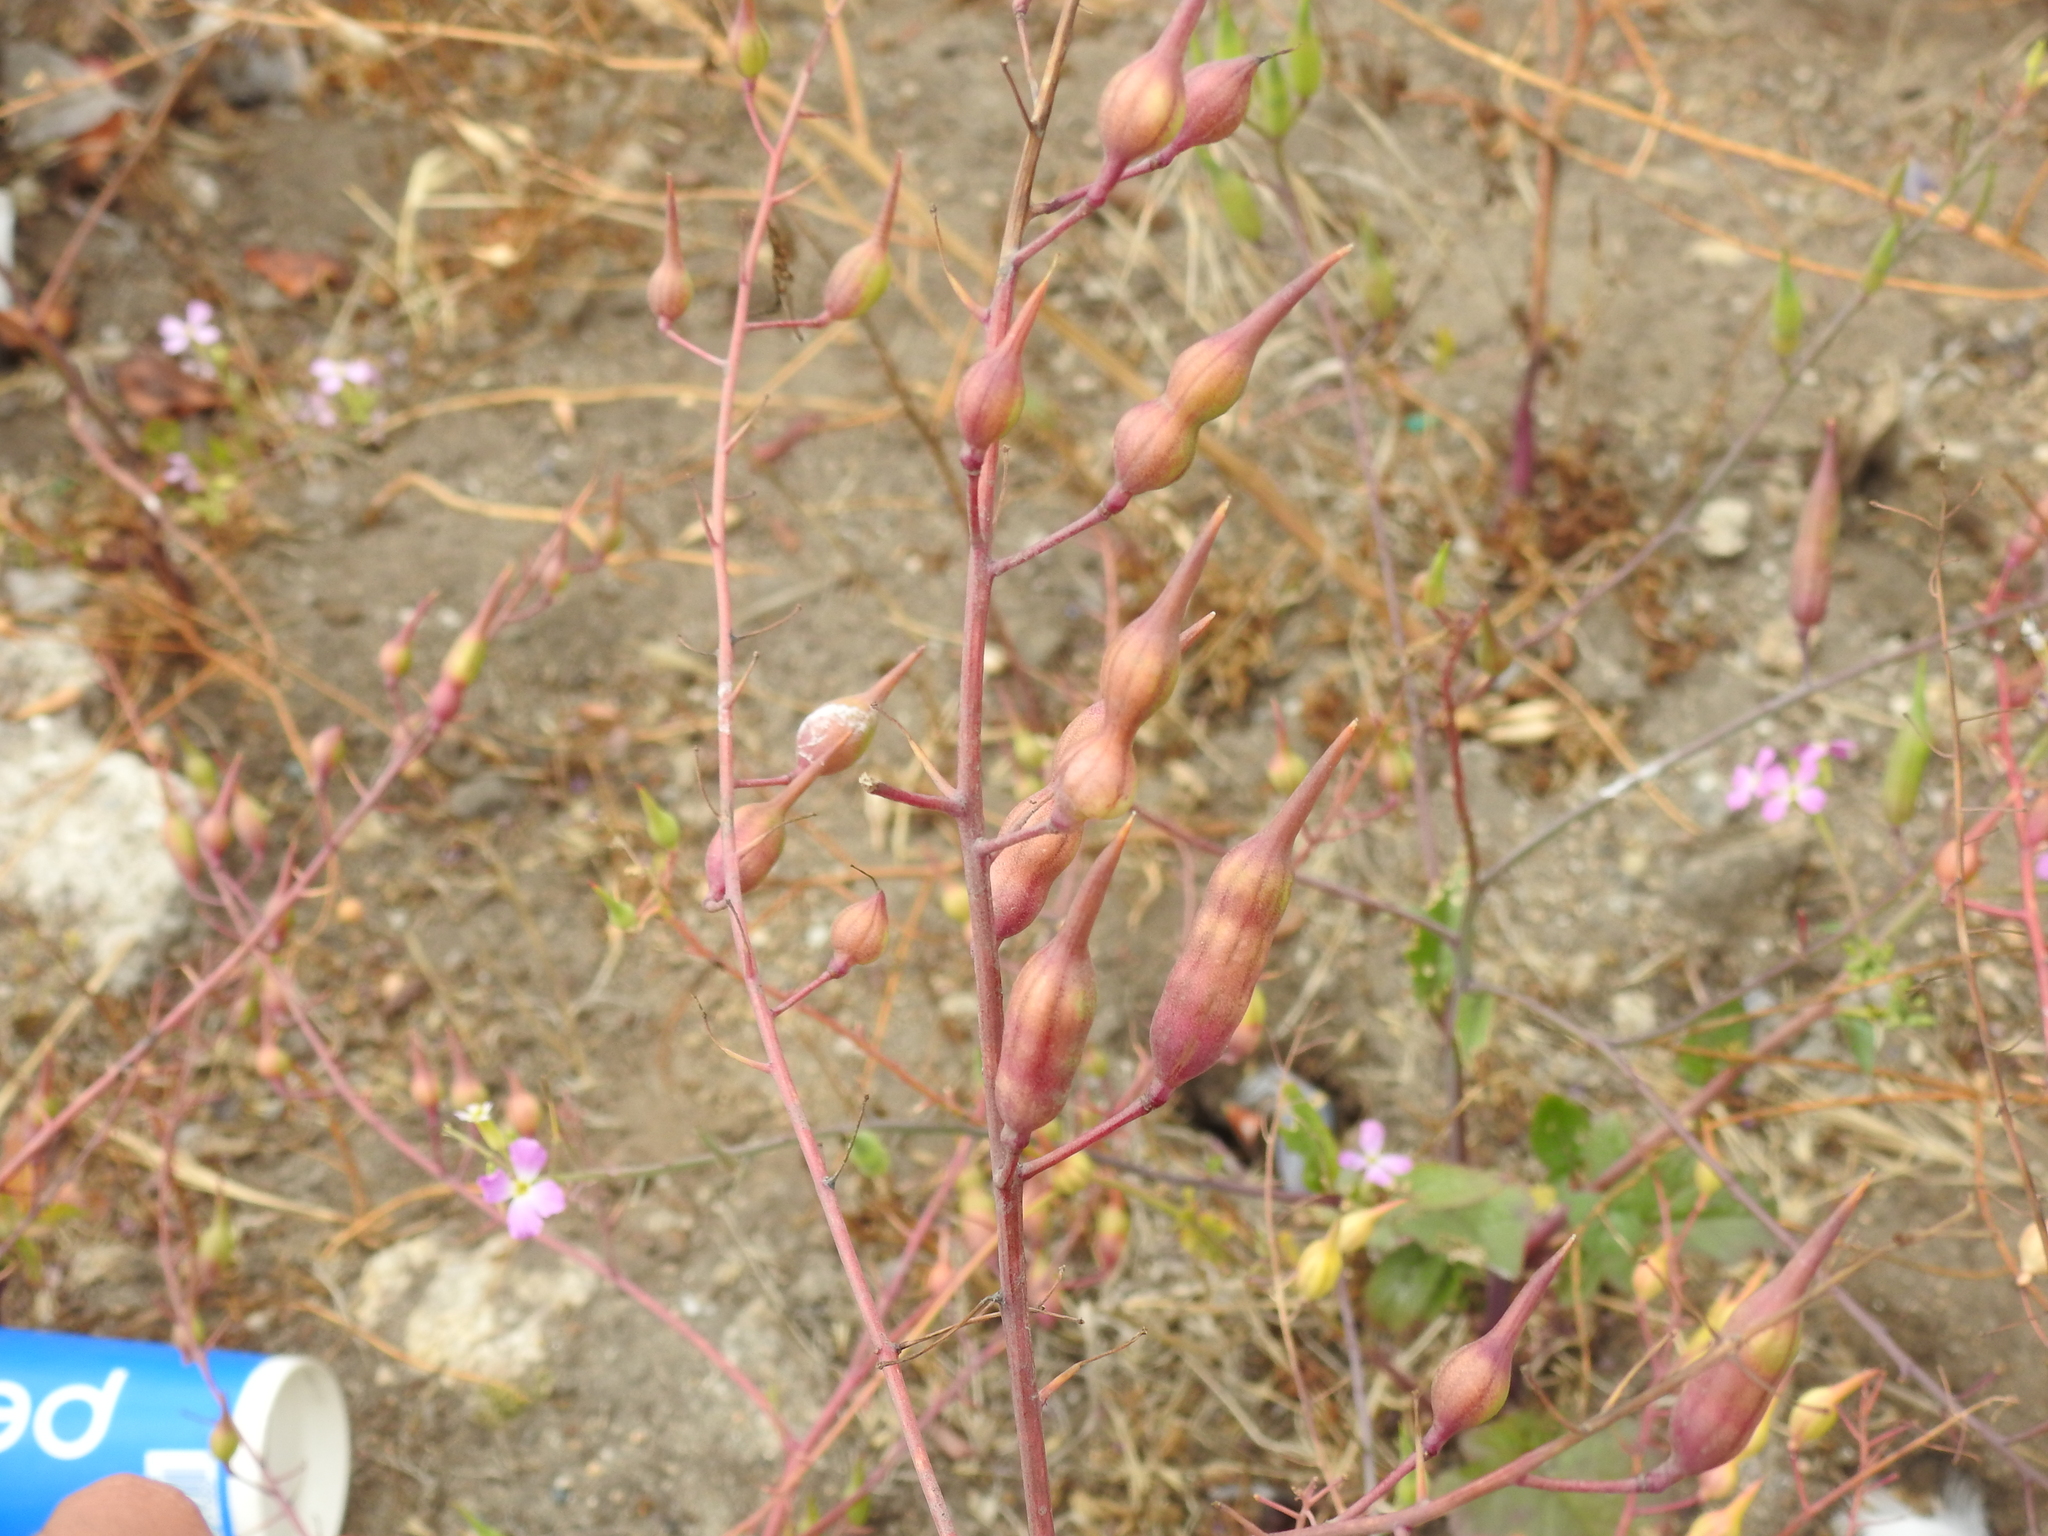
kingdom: Plantae
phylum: Tracheophyta
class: Magnoliopsida
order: Brassicales
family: Brassicaceae
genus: Raphanus
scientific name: Raphanus sativus
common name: Cultivated radish
